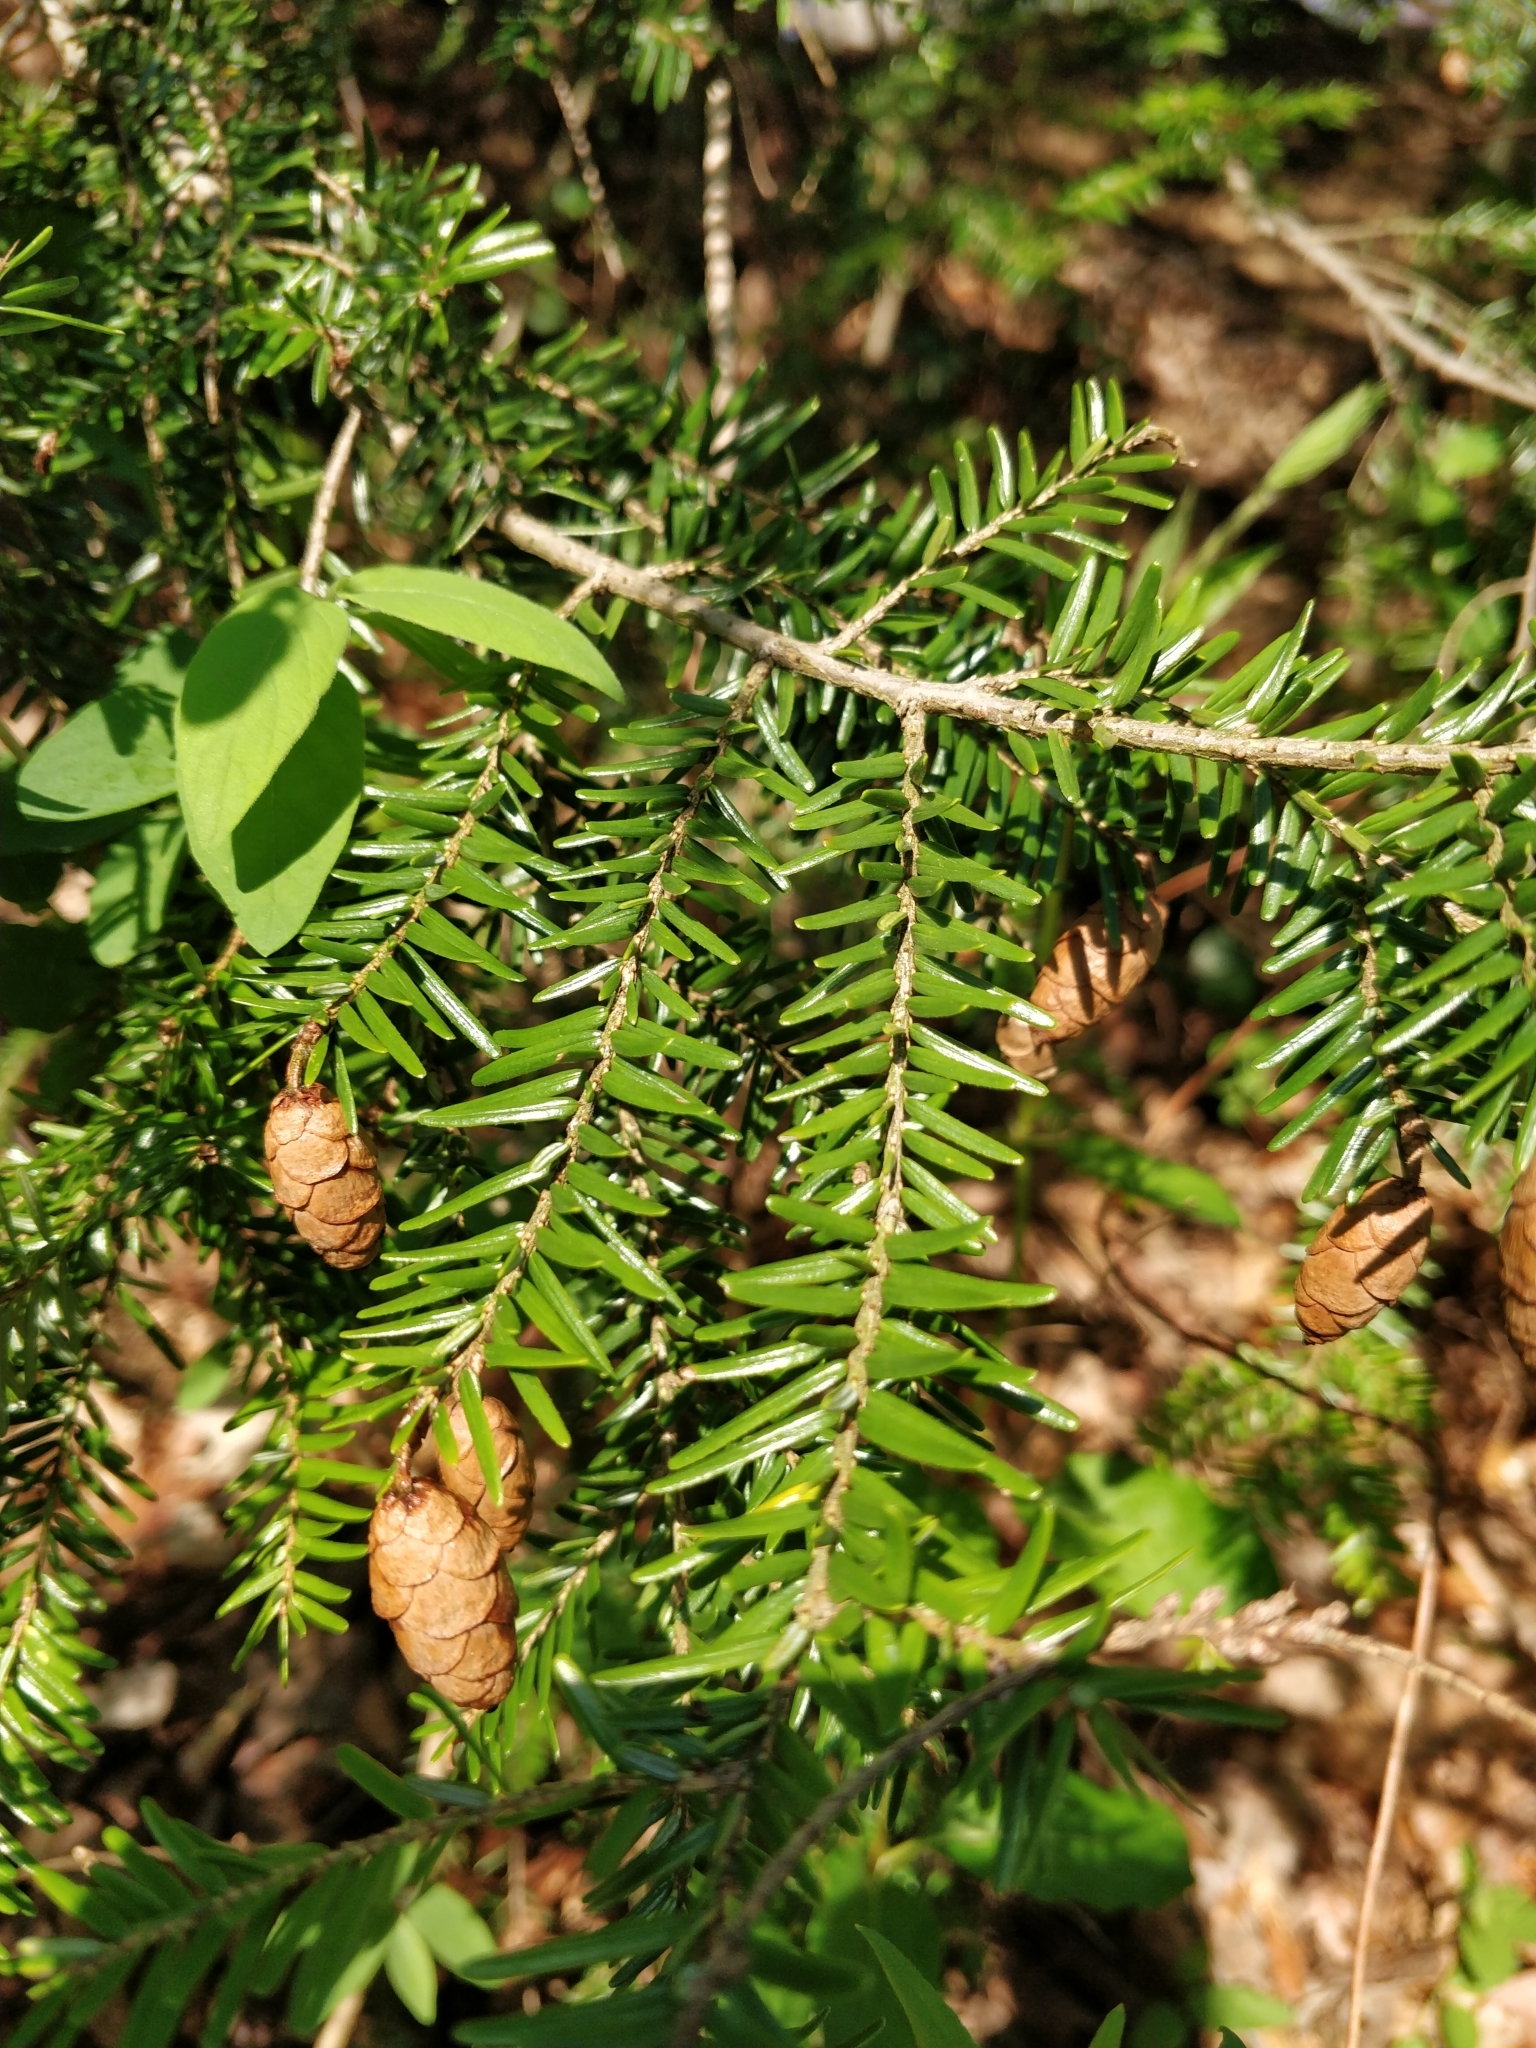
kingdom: Plantae
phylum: Tracheophyta
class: Pinopsida
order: Pinales
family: Pinaceae
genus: Tsuga
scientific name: Tsuga canadensis
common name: Eastern hemlock
